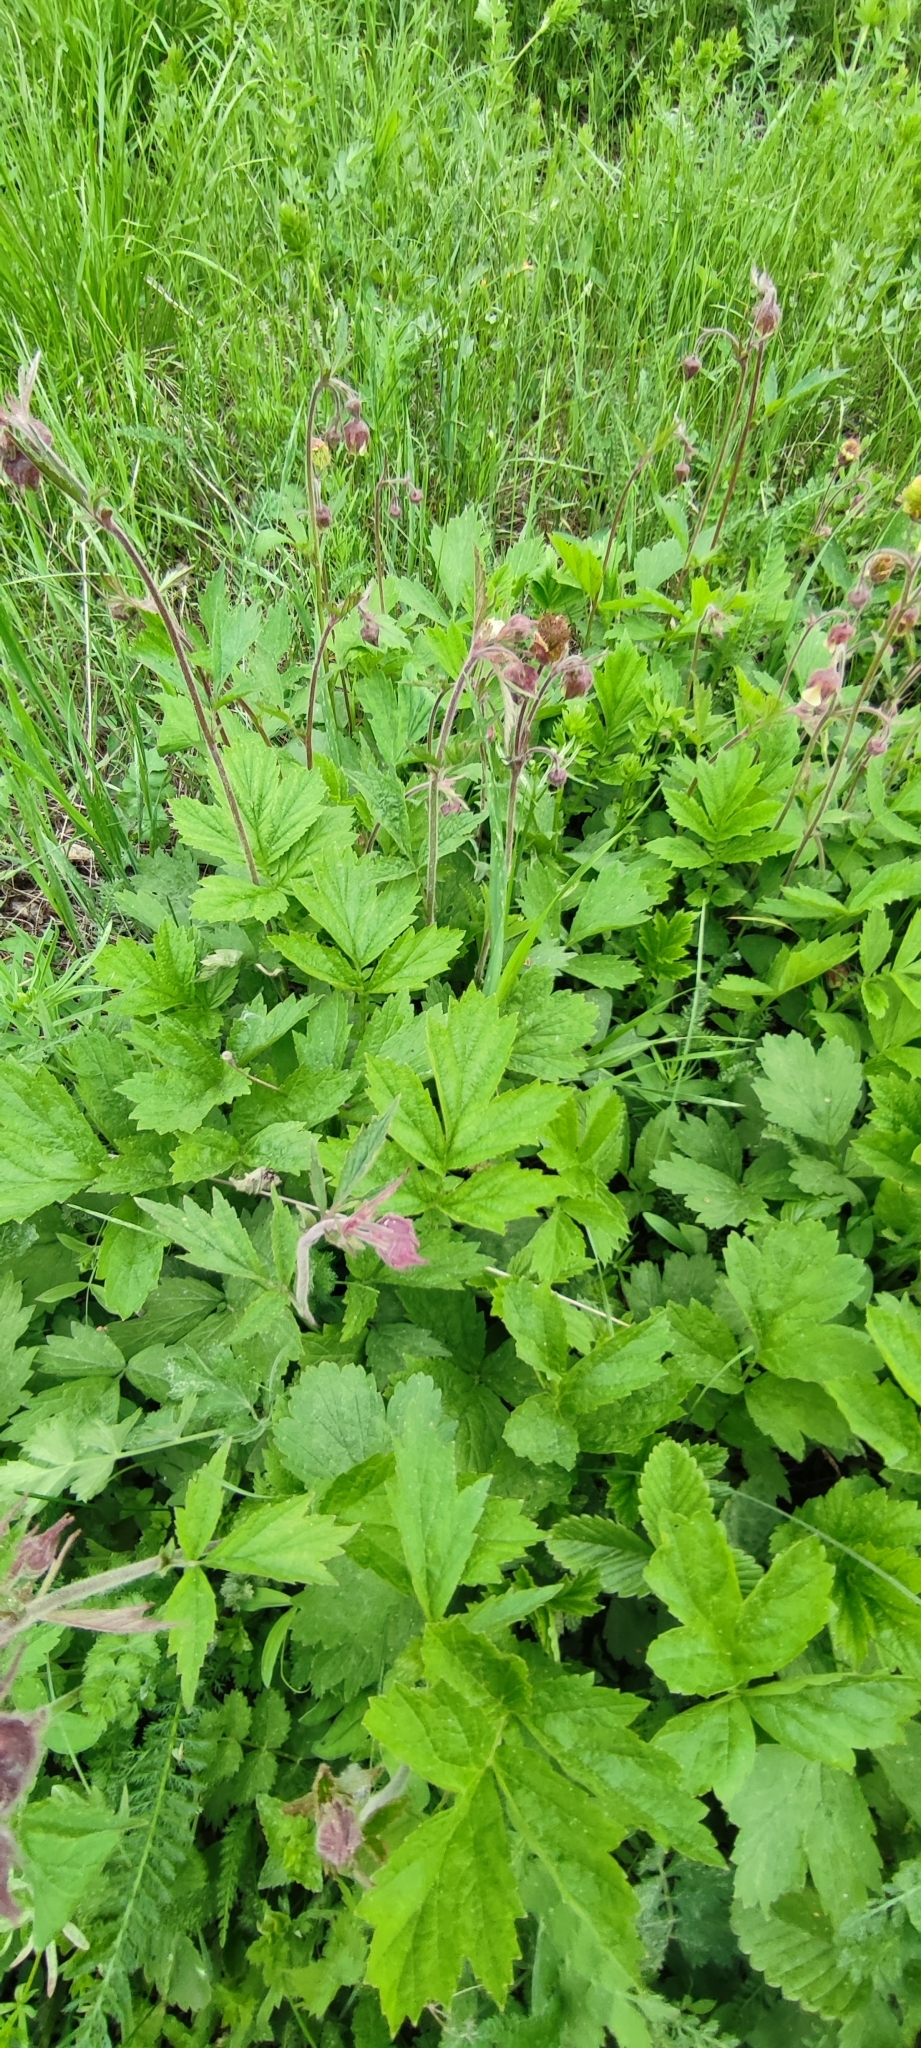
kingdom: Plantae
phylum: Tracheophyta
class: Magnoliopsida
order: Rosales
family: Rosaceae
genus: Geum
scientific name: Geum rivale
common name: Water avens
